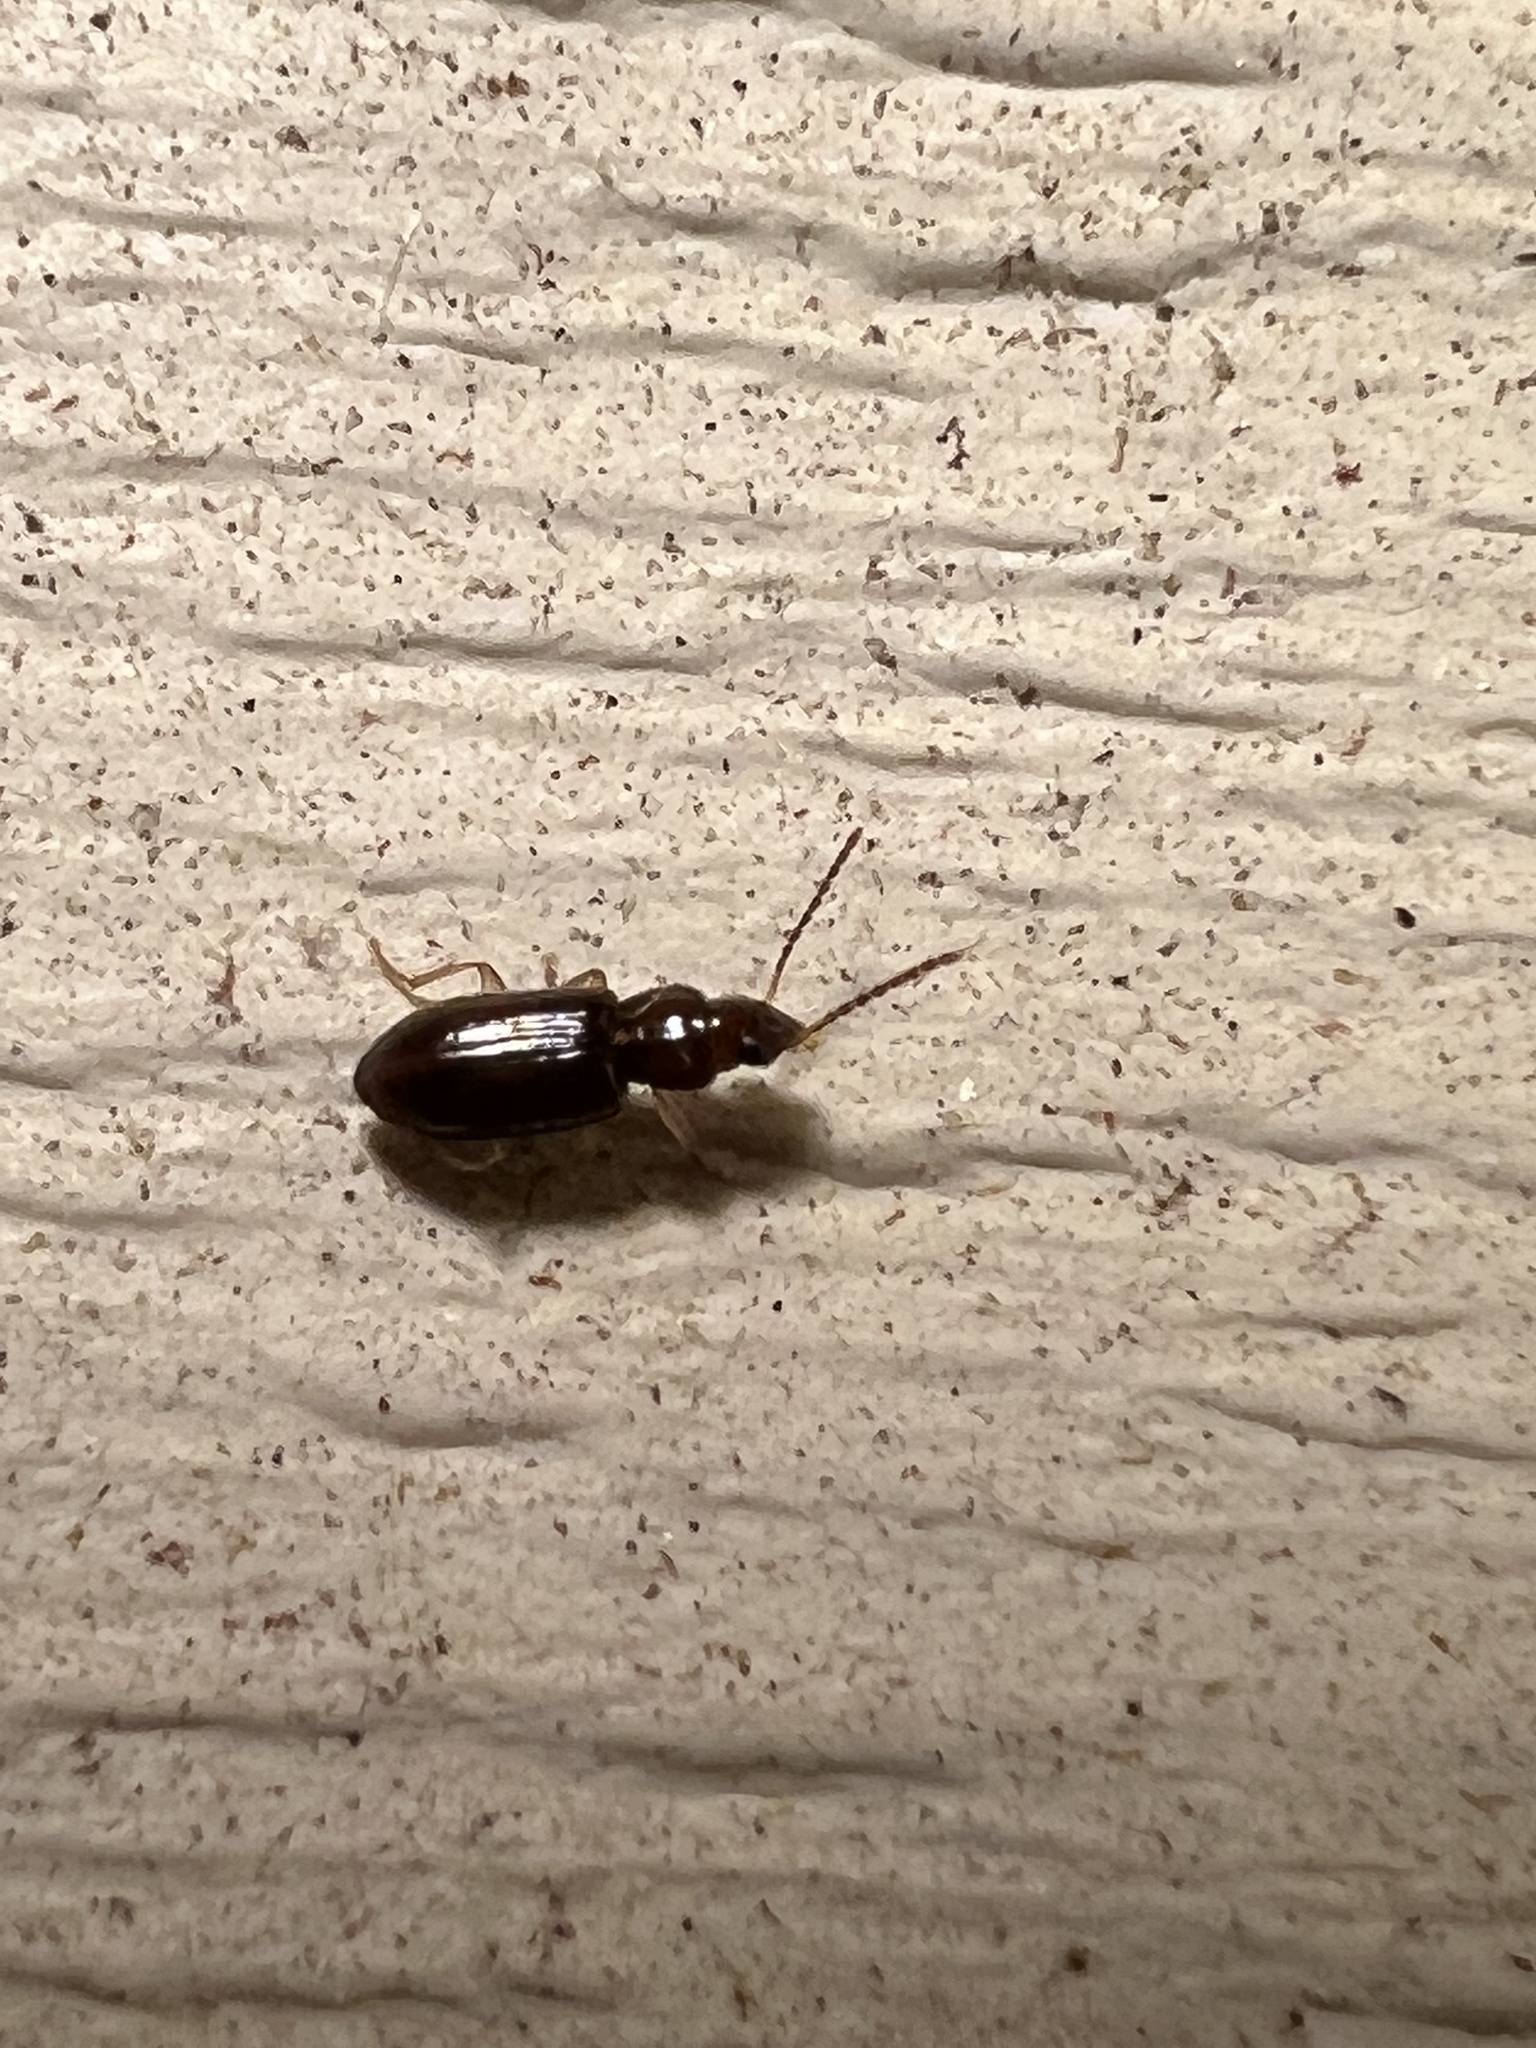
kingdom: Animalia
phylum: Arthropoda
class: Insecta
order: Coleoptera
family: Carabidae
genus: Stenolophus
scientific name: Stenolophus ochropezus
